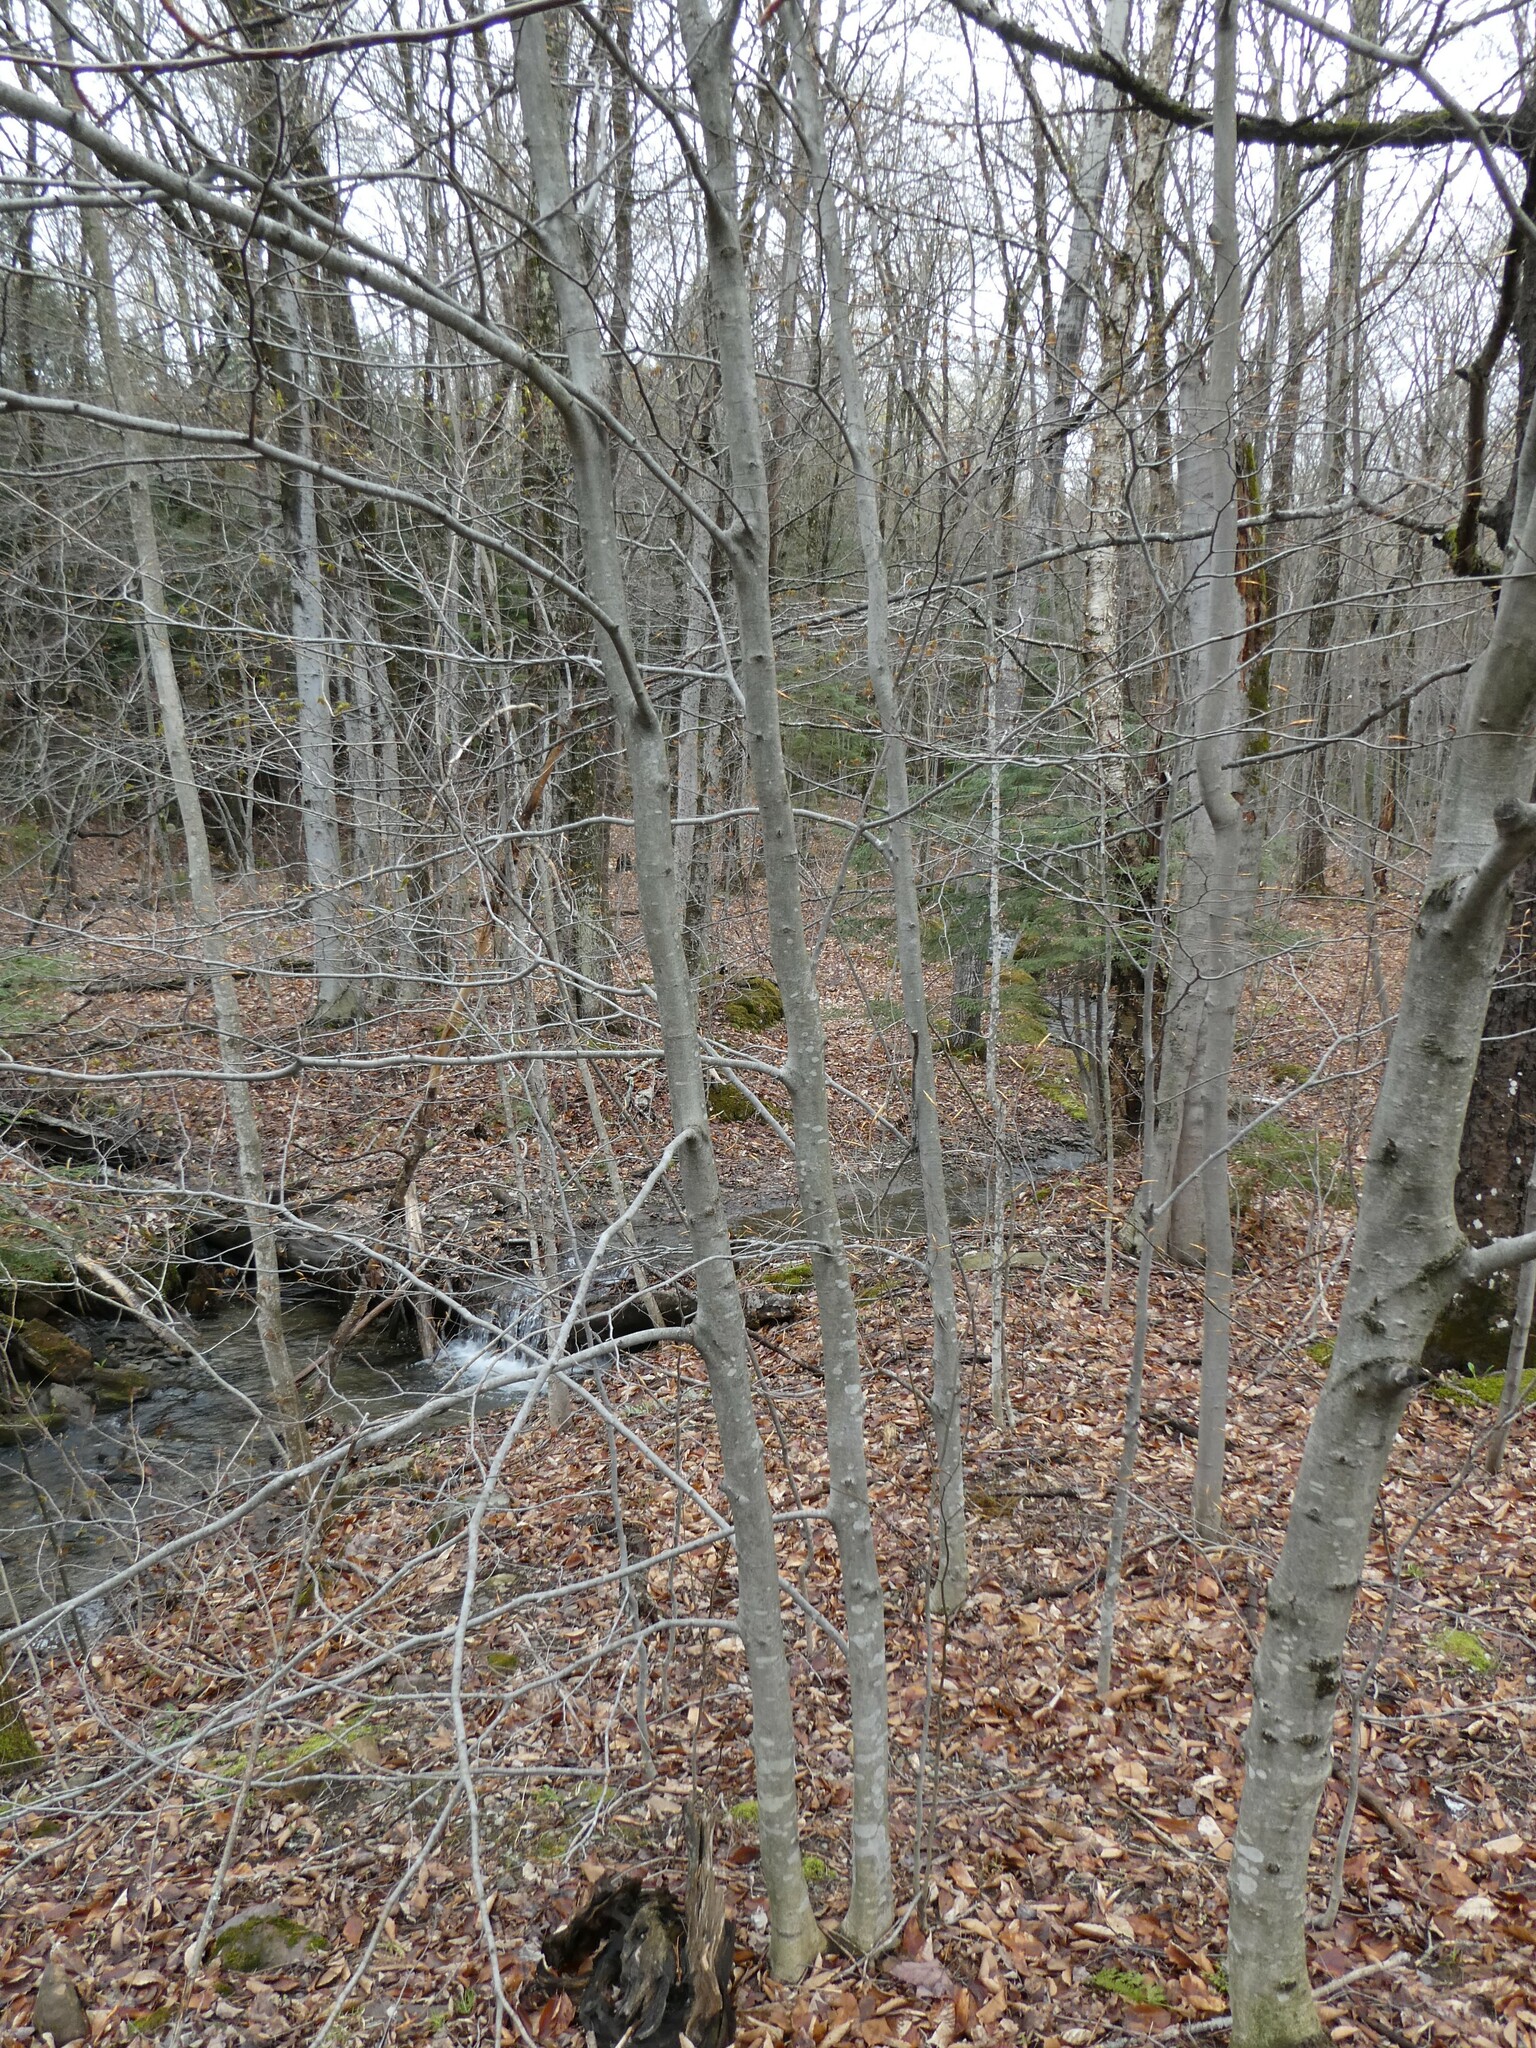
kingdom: Plantae
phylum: Tracheophyta
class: Magnoliopsida
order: Fagales
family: Fagaceae
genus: Fagus
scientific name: Fagus grandifolia
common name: American beech
